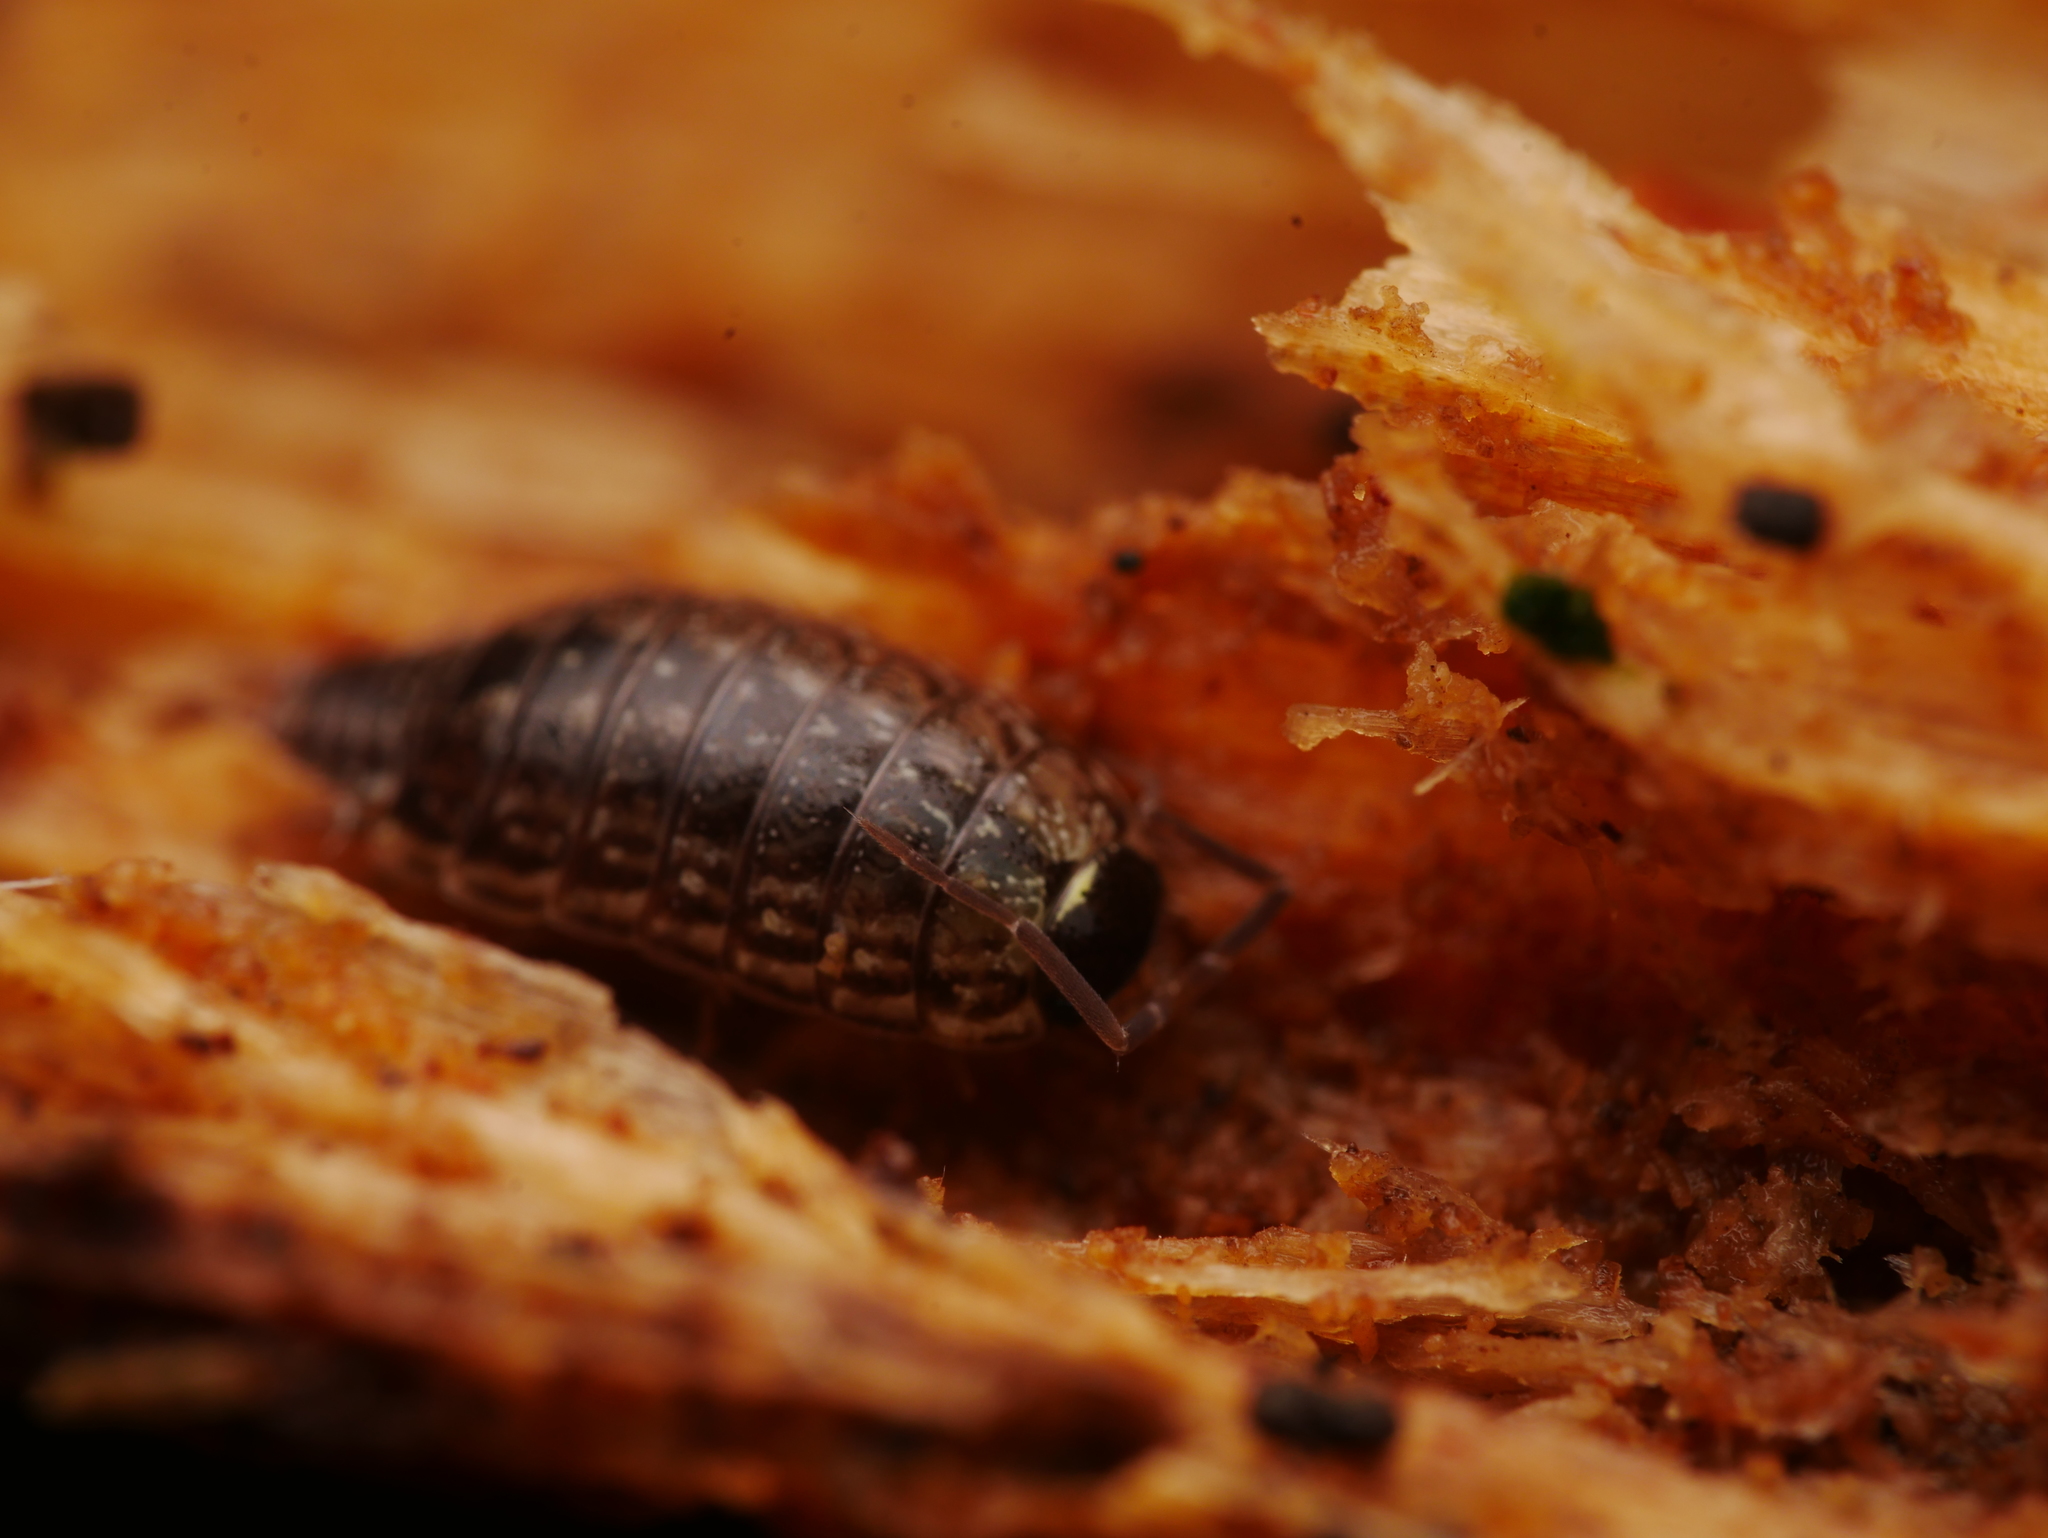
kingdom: Animalia
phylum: Arthropoda
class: Malacostraca
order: Isopoda
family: Philosciidae
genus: Philoscia
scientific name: Philoscia muscorum
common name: Common striped woodlouse
